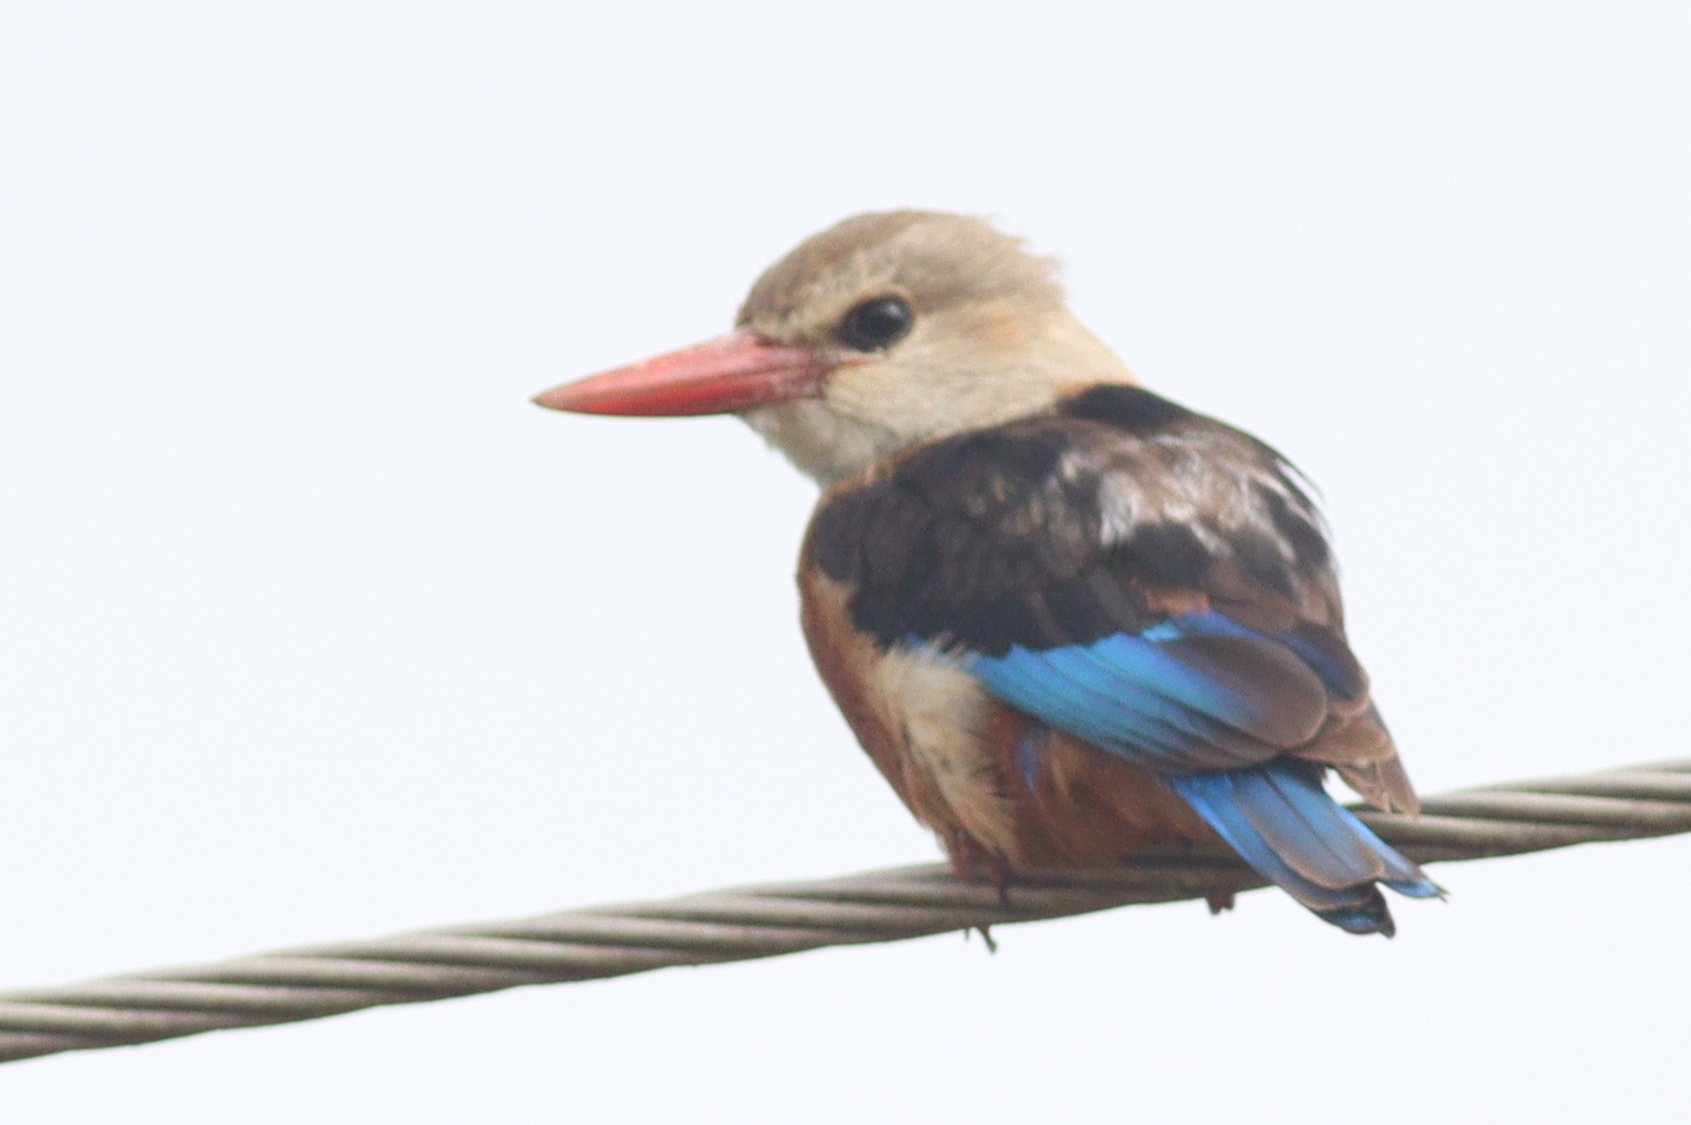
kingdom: Animalia
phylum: Chordata
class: Aves
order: Coraciiformes
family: Alcedinidae
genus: Halcyon
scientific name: Halcyon leucocephala
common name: Grey-headed kingfisher
